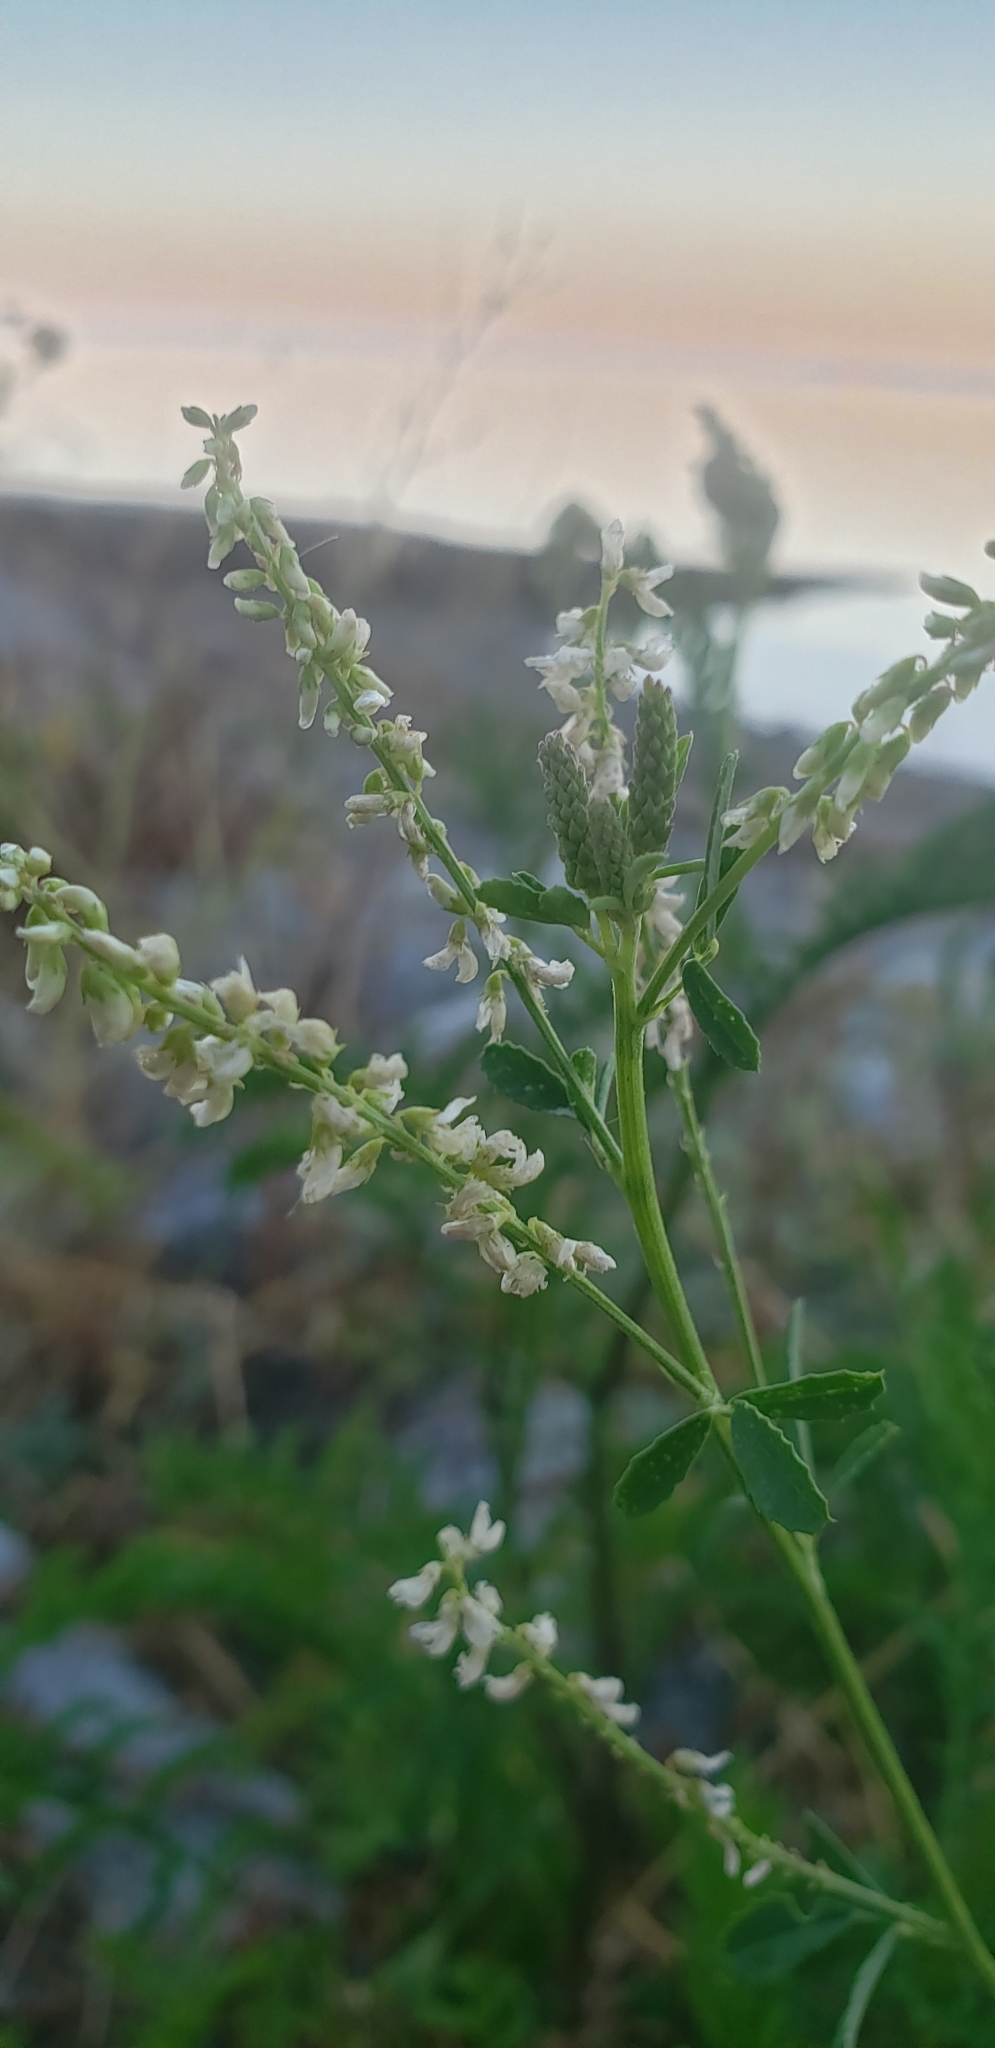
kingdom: Plantae
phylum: Tracheophyta
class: Magnoliopsida
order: Fabales
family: Fabaceae
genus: Melilotus
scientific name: Melilotus albus
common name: White melilot
